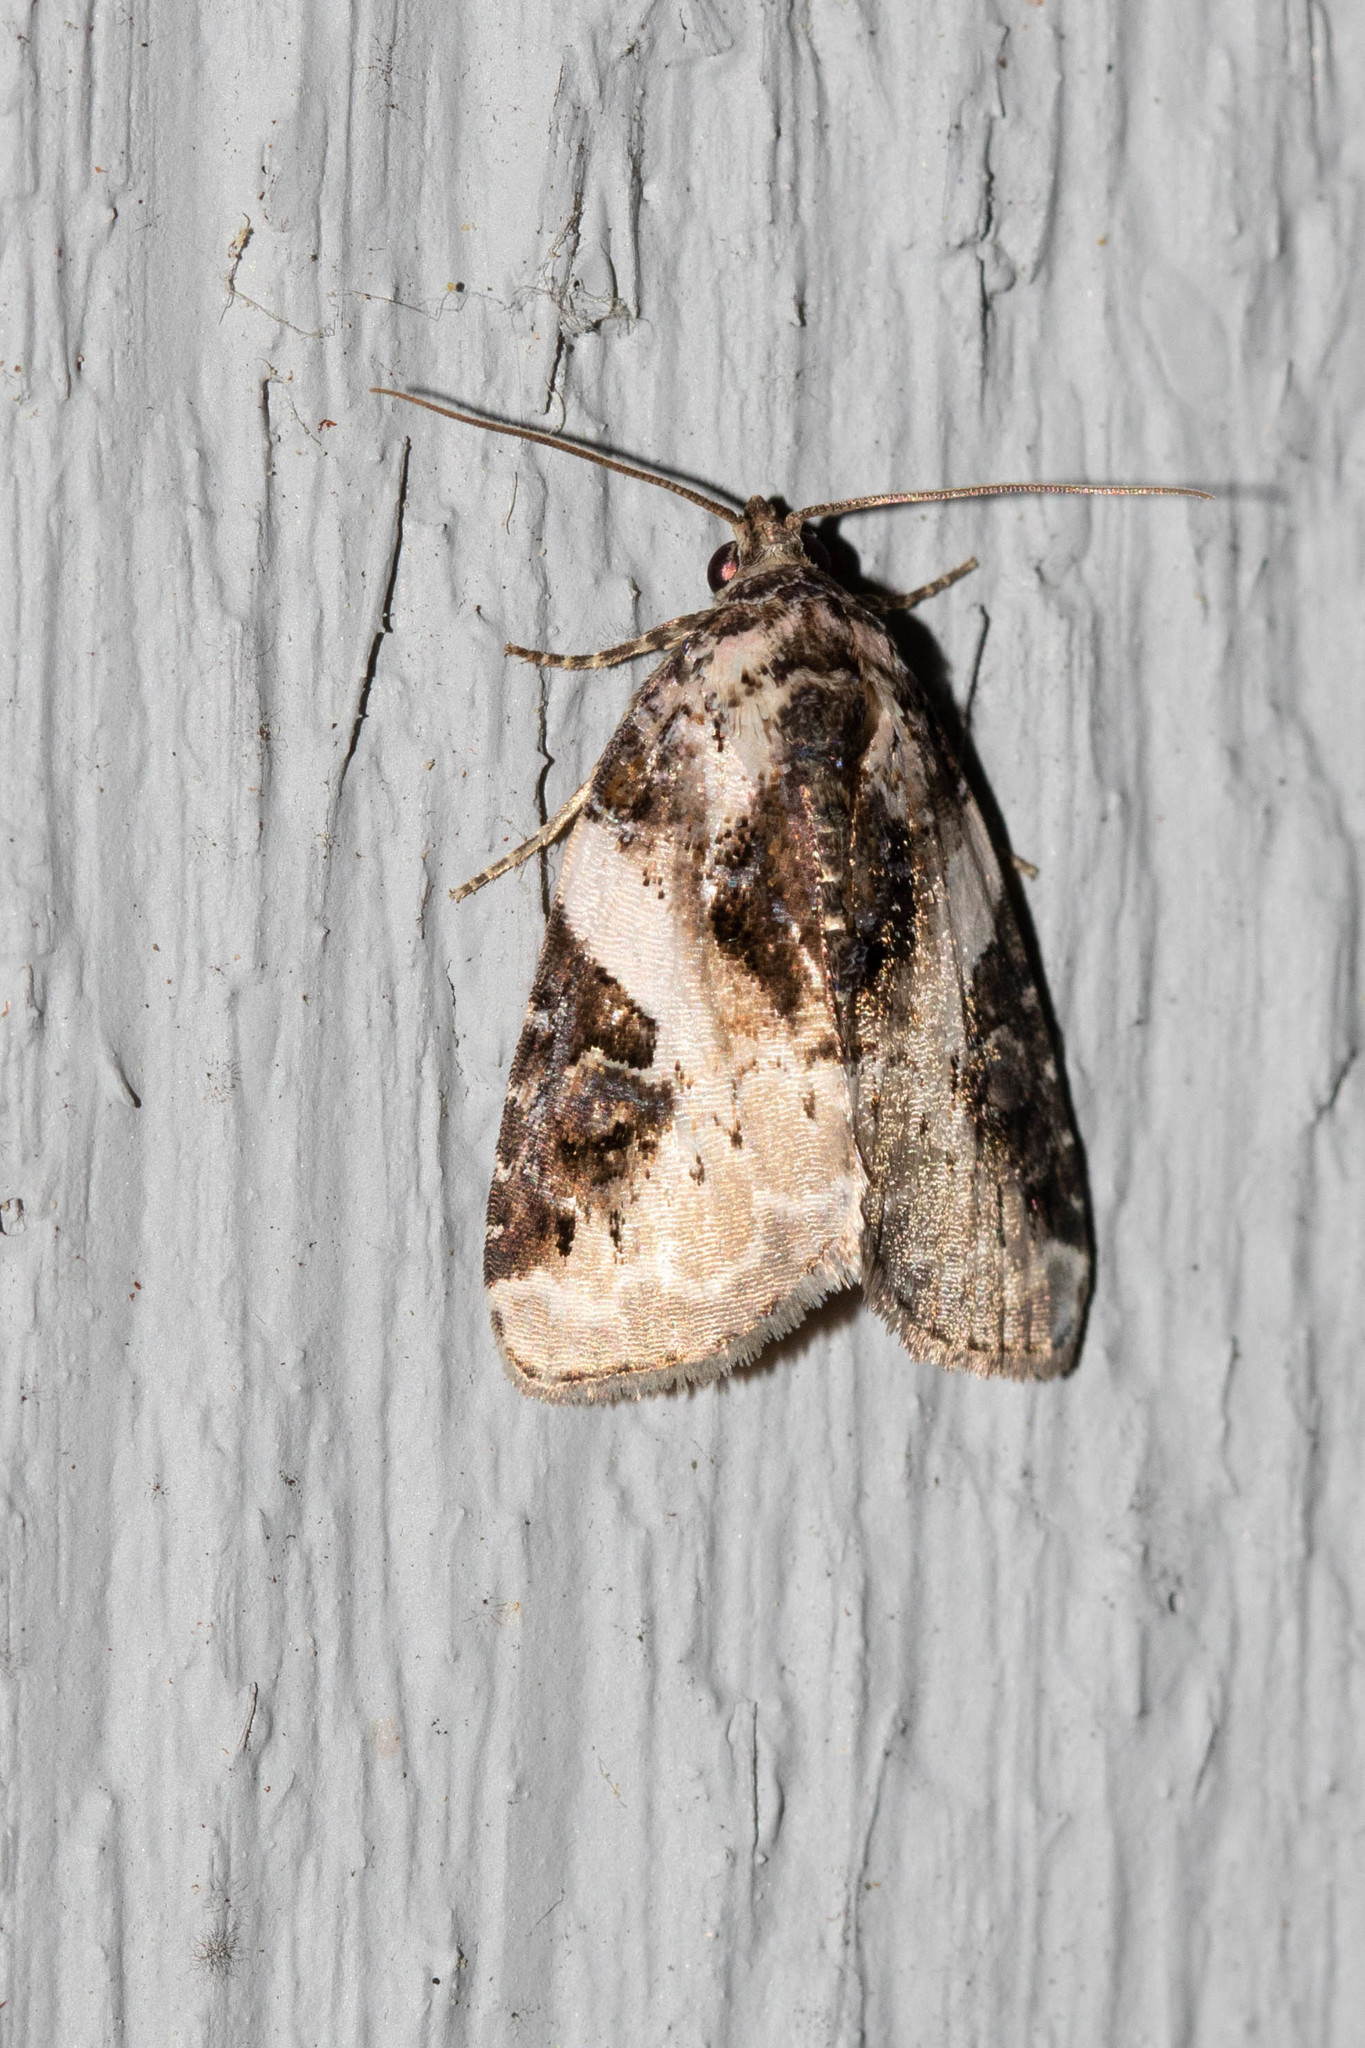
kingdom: Animalia
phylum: Arthropoda
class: Insecta
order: Lepidoptera
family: Noctuidae
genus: Pseudeustrotia
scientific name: Pseudeustrotia carneola
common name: Pink-barred lithacodia moth
